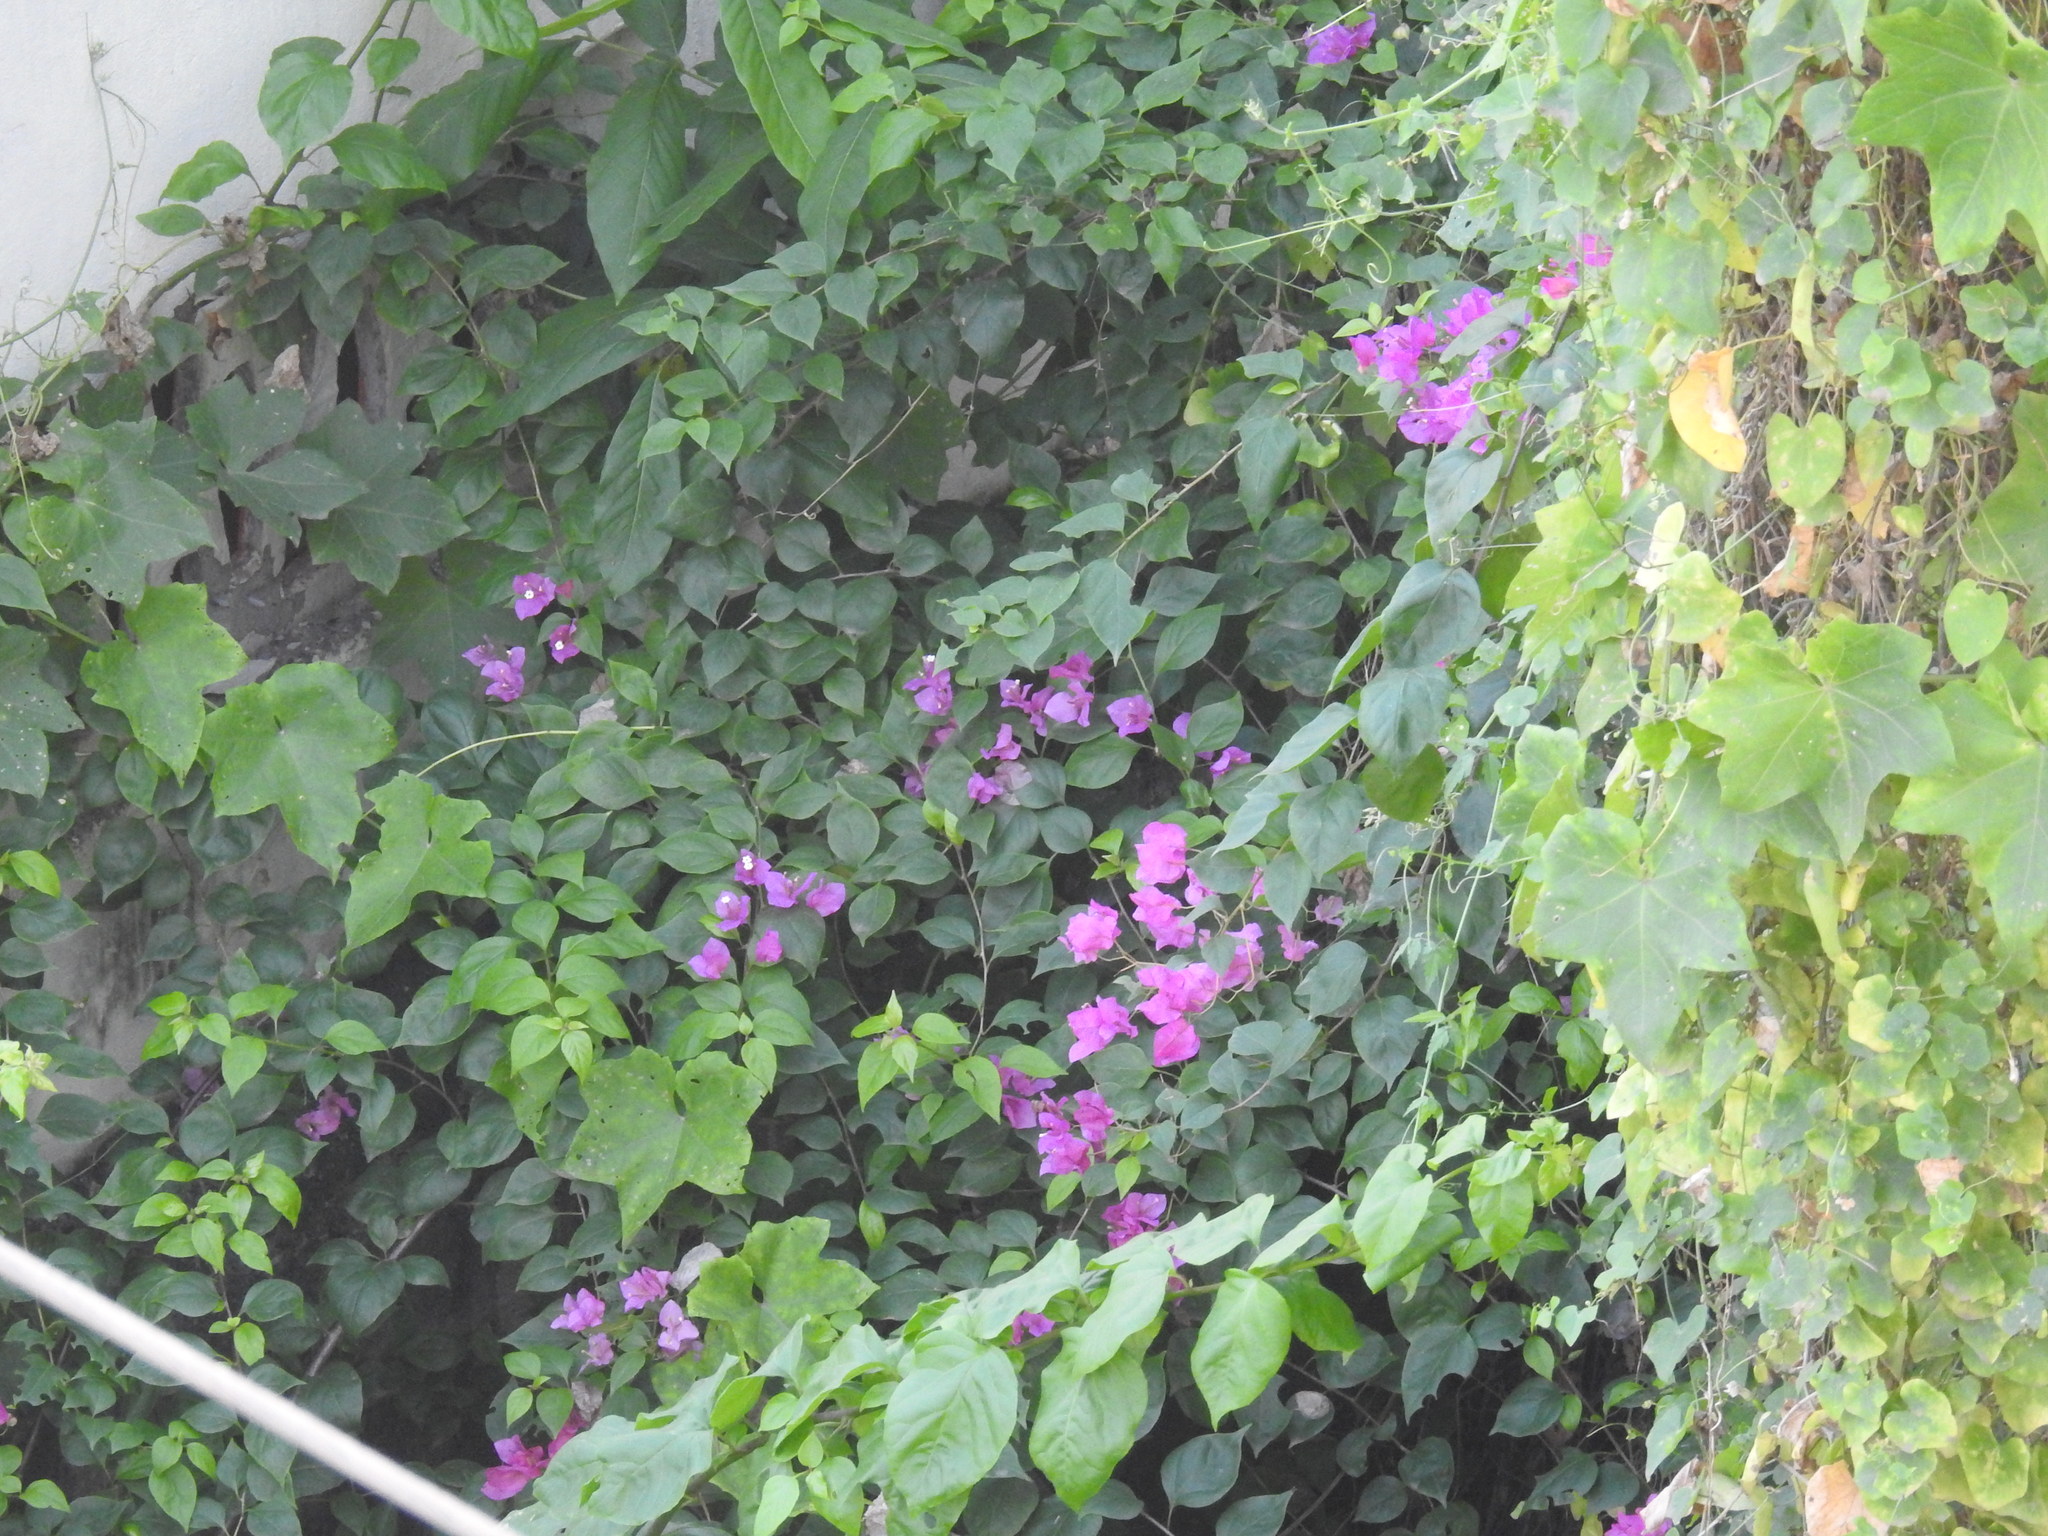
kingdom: Plantae
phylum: Tracheophyta
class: Magnoliopsida
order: Caryophyllales
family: Nyctaginaceae
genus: Bougainvillea
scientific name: Bougainvillea glabra
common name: Paperflower
